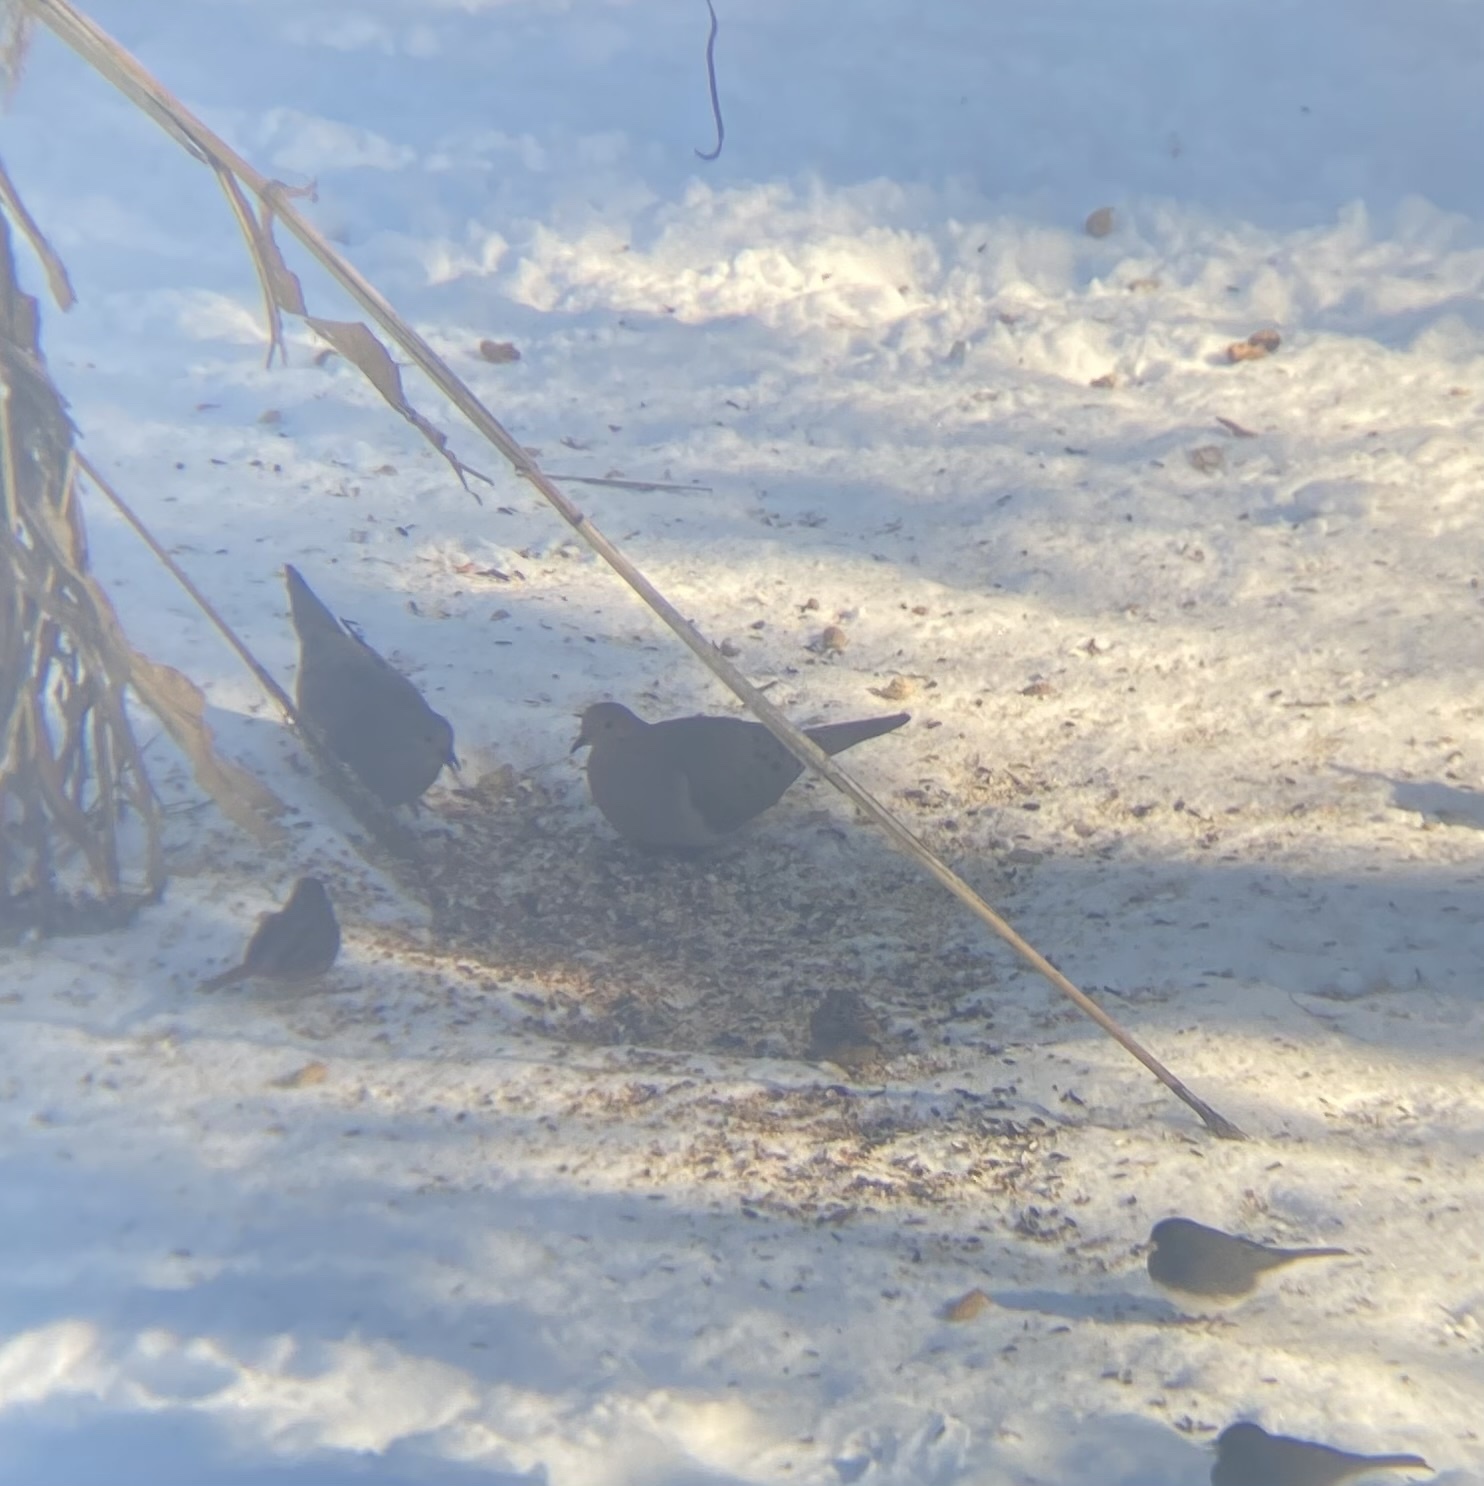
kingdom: Animalia
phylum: Chordata
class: Aves
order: Columbiformes
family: Columbidae
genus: Zenaida
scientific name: Zenaida macroura
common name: Mourning dove
